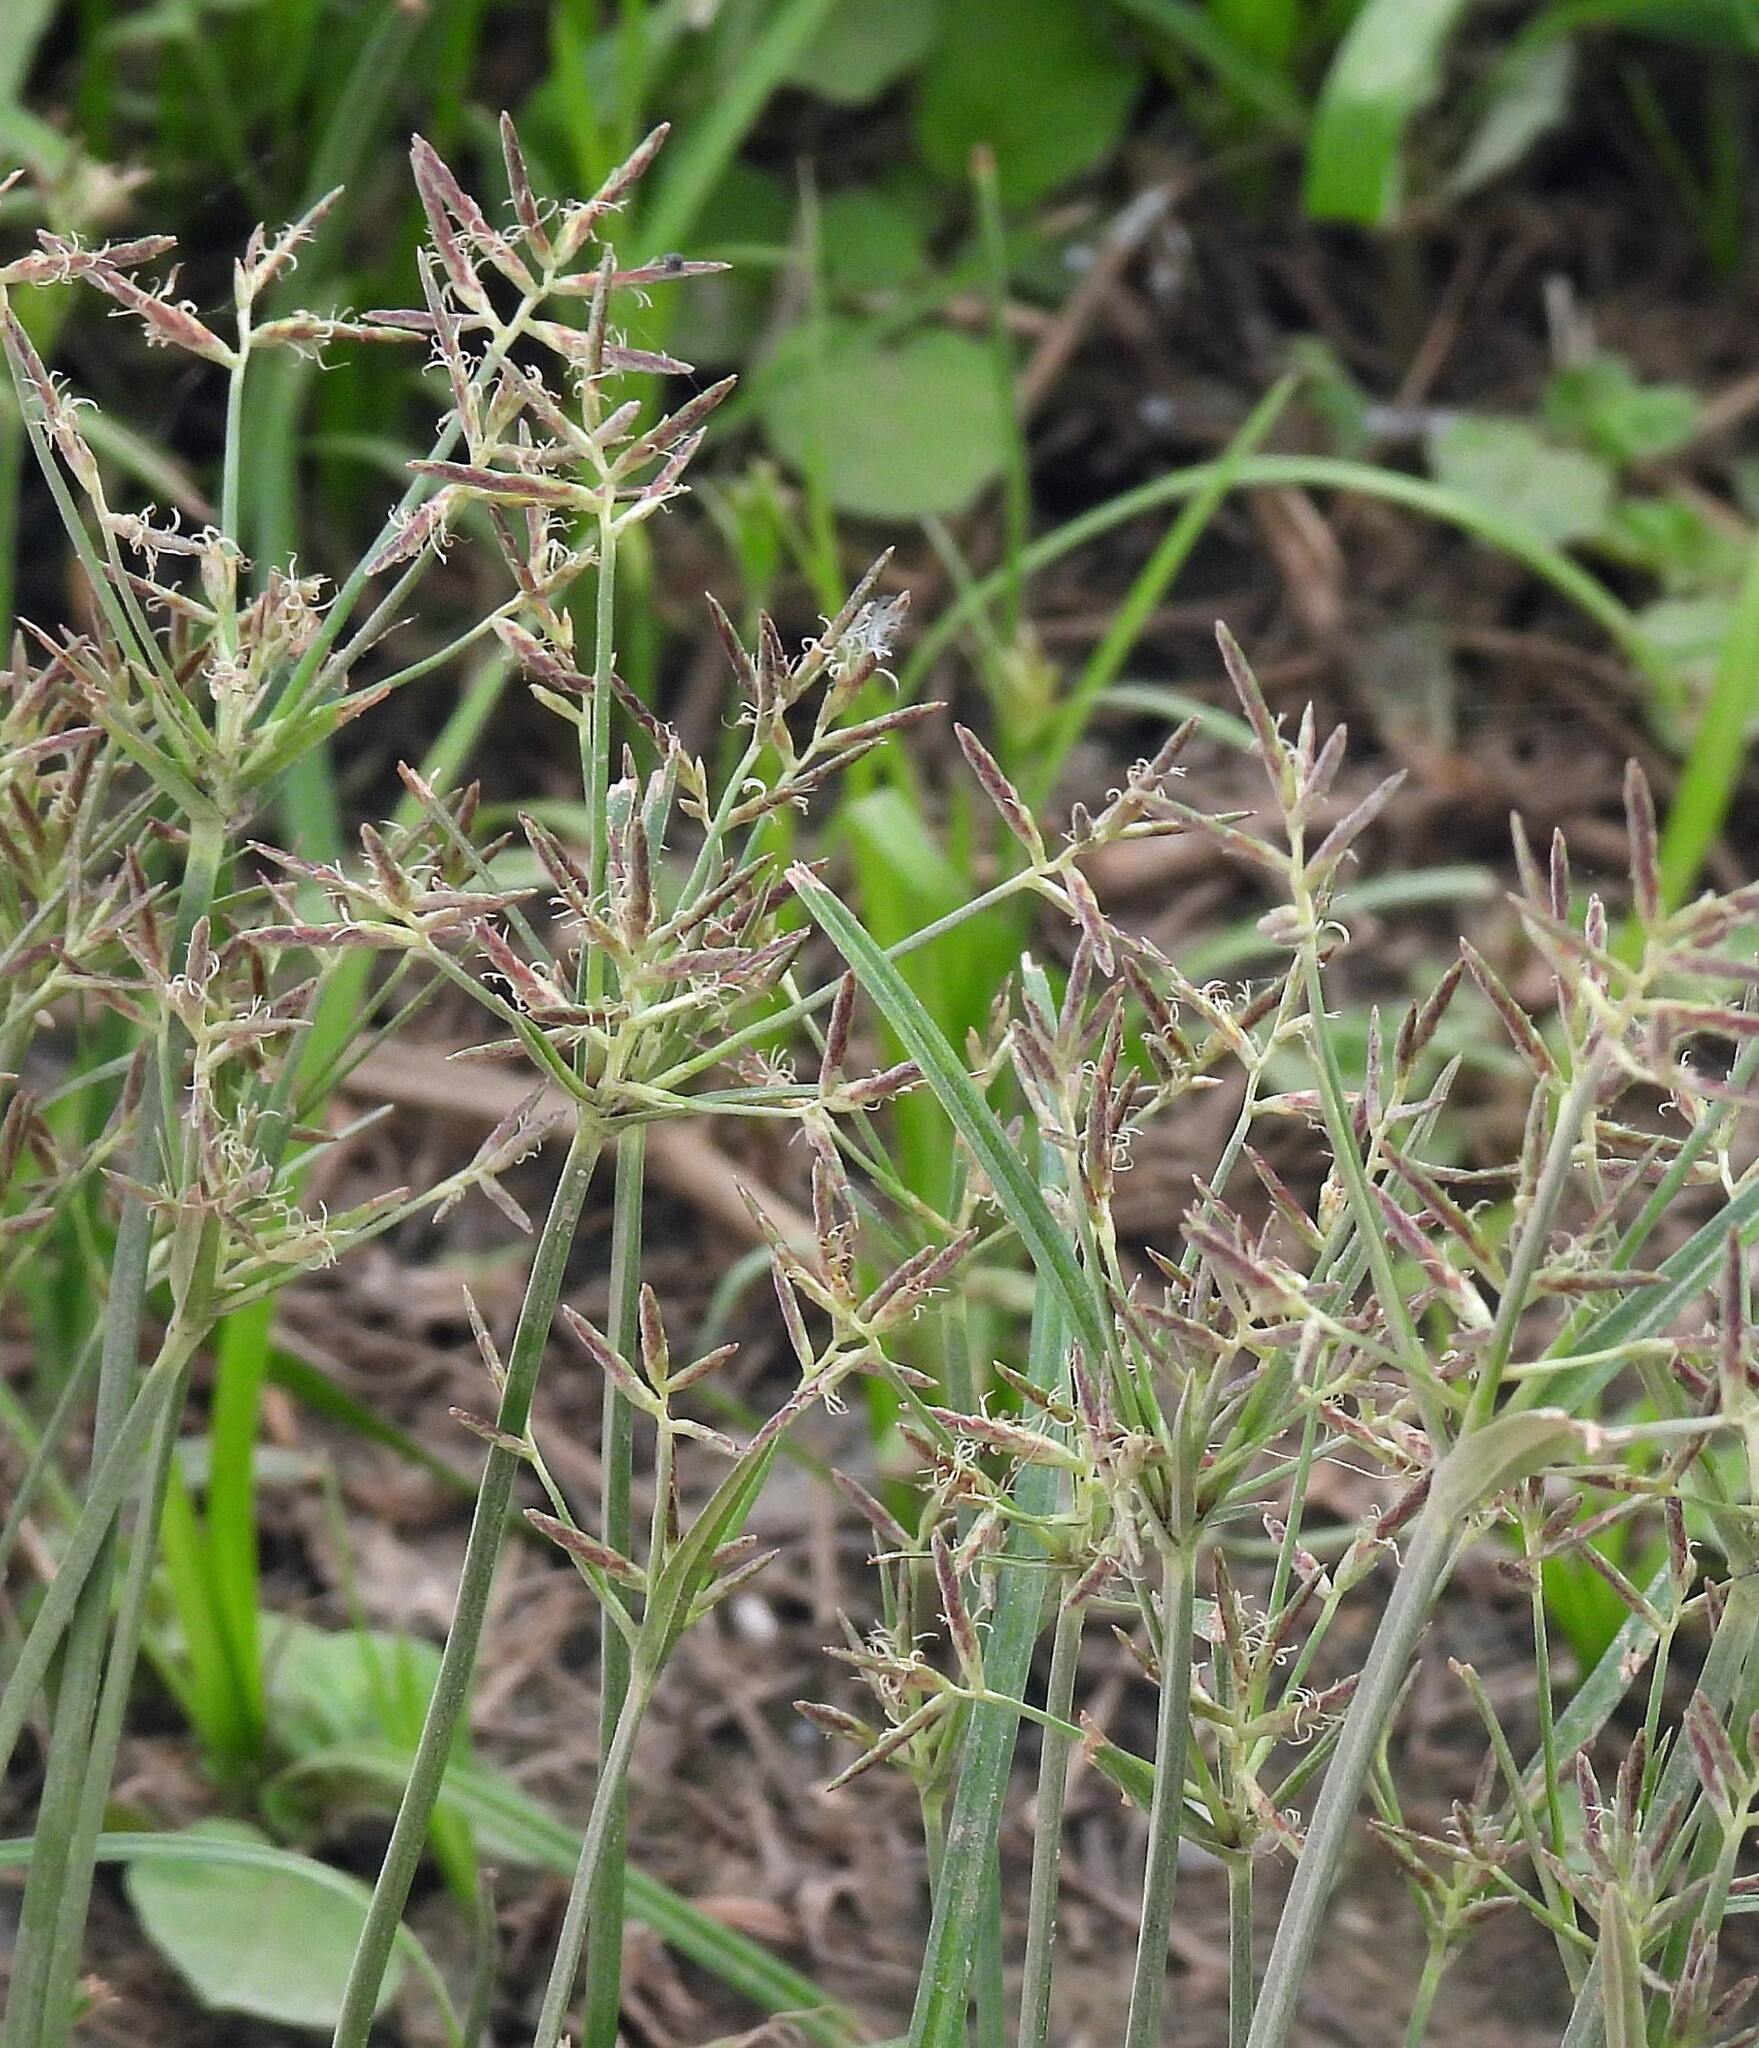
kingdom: Plantae
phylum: Tracheophyta
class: Liliopsida
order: Poales
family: Cyperaceae
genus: Cyperus
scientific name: Cyperus rotundus
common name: Nutgrass
